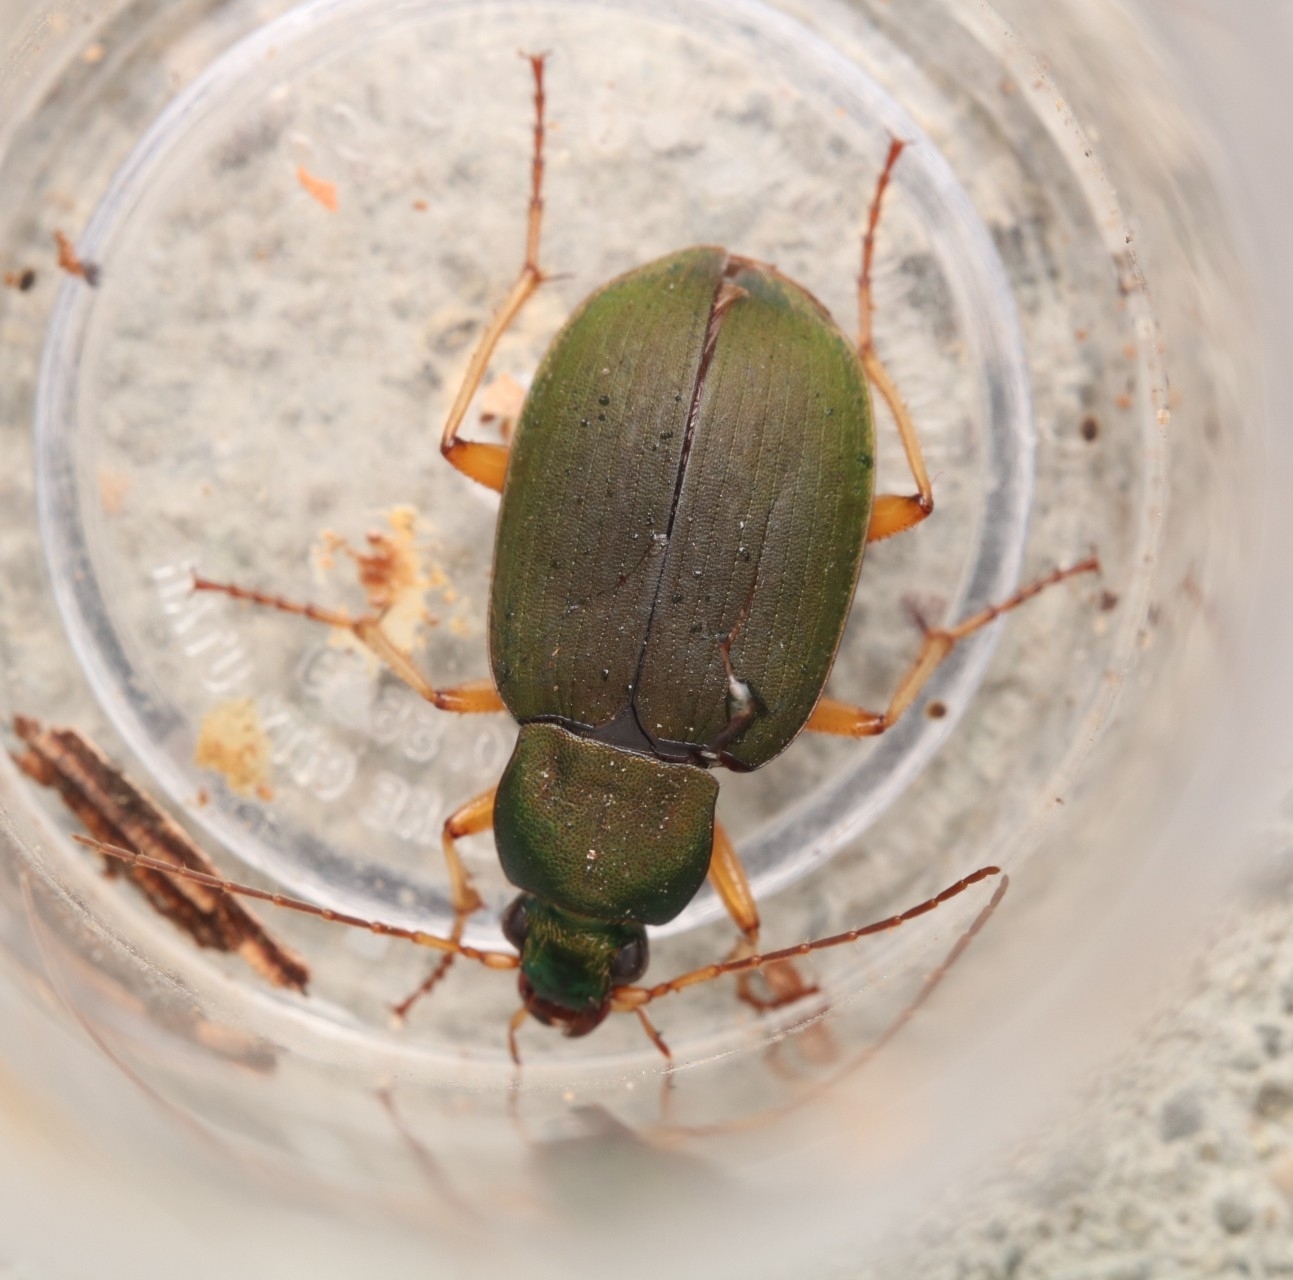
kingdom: Animalia
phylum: Arthropoda
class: Insecta
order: Coleoptera
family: Carabidae
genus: Chlaenius
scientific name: Chlaenius sericeus
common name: Green pubescent ground beetle
